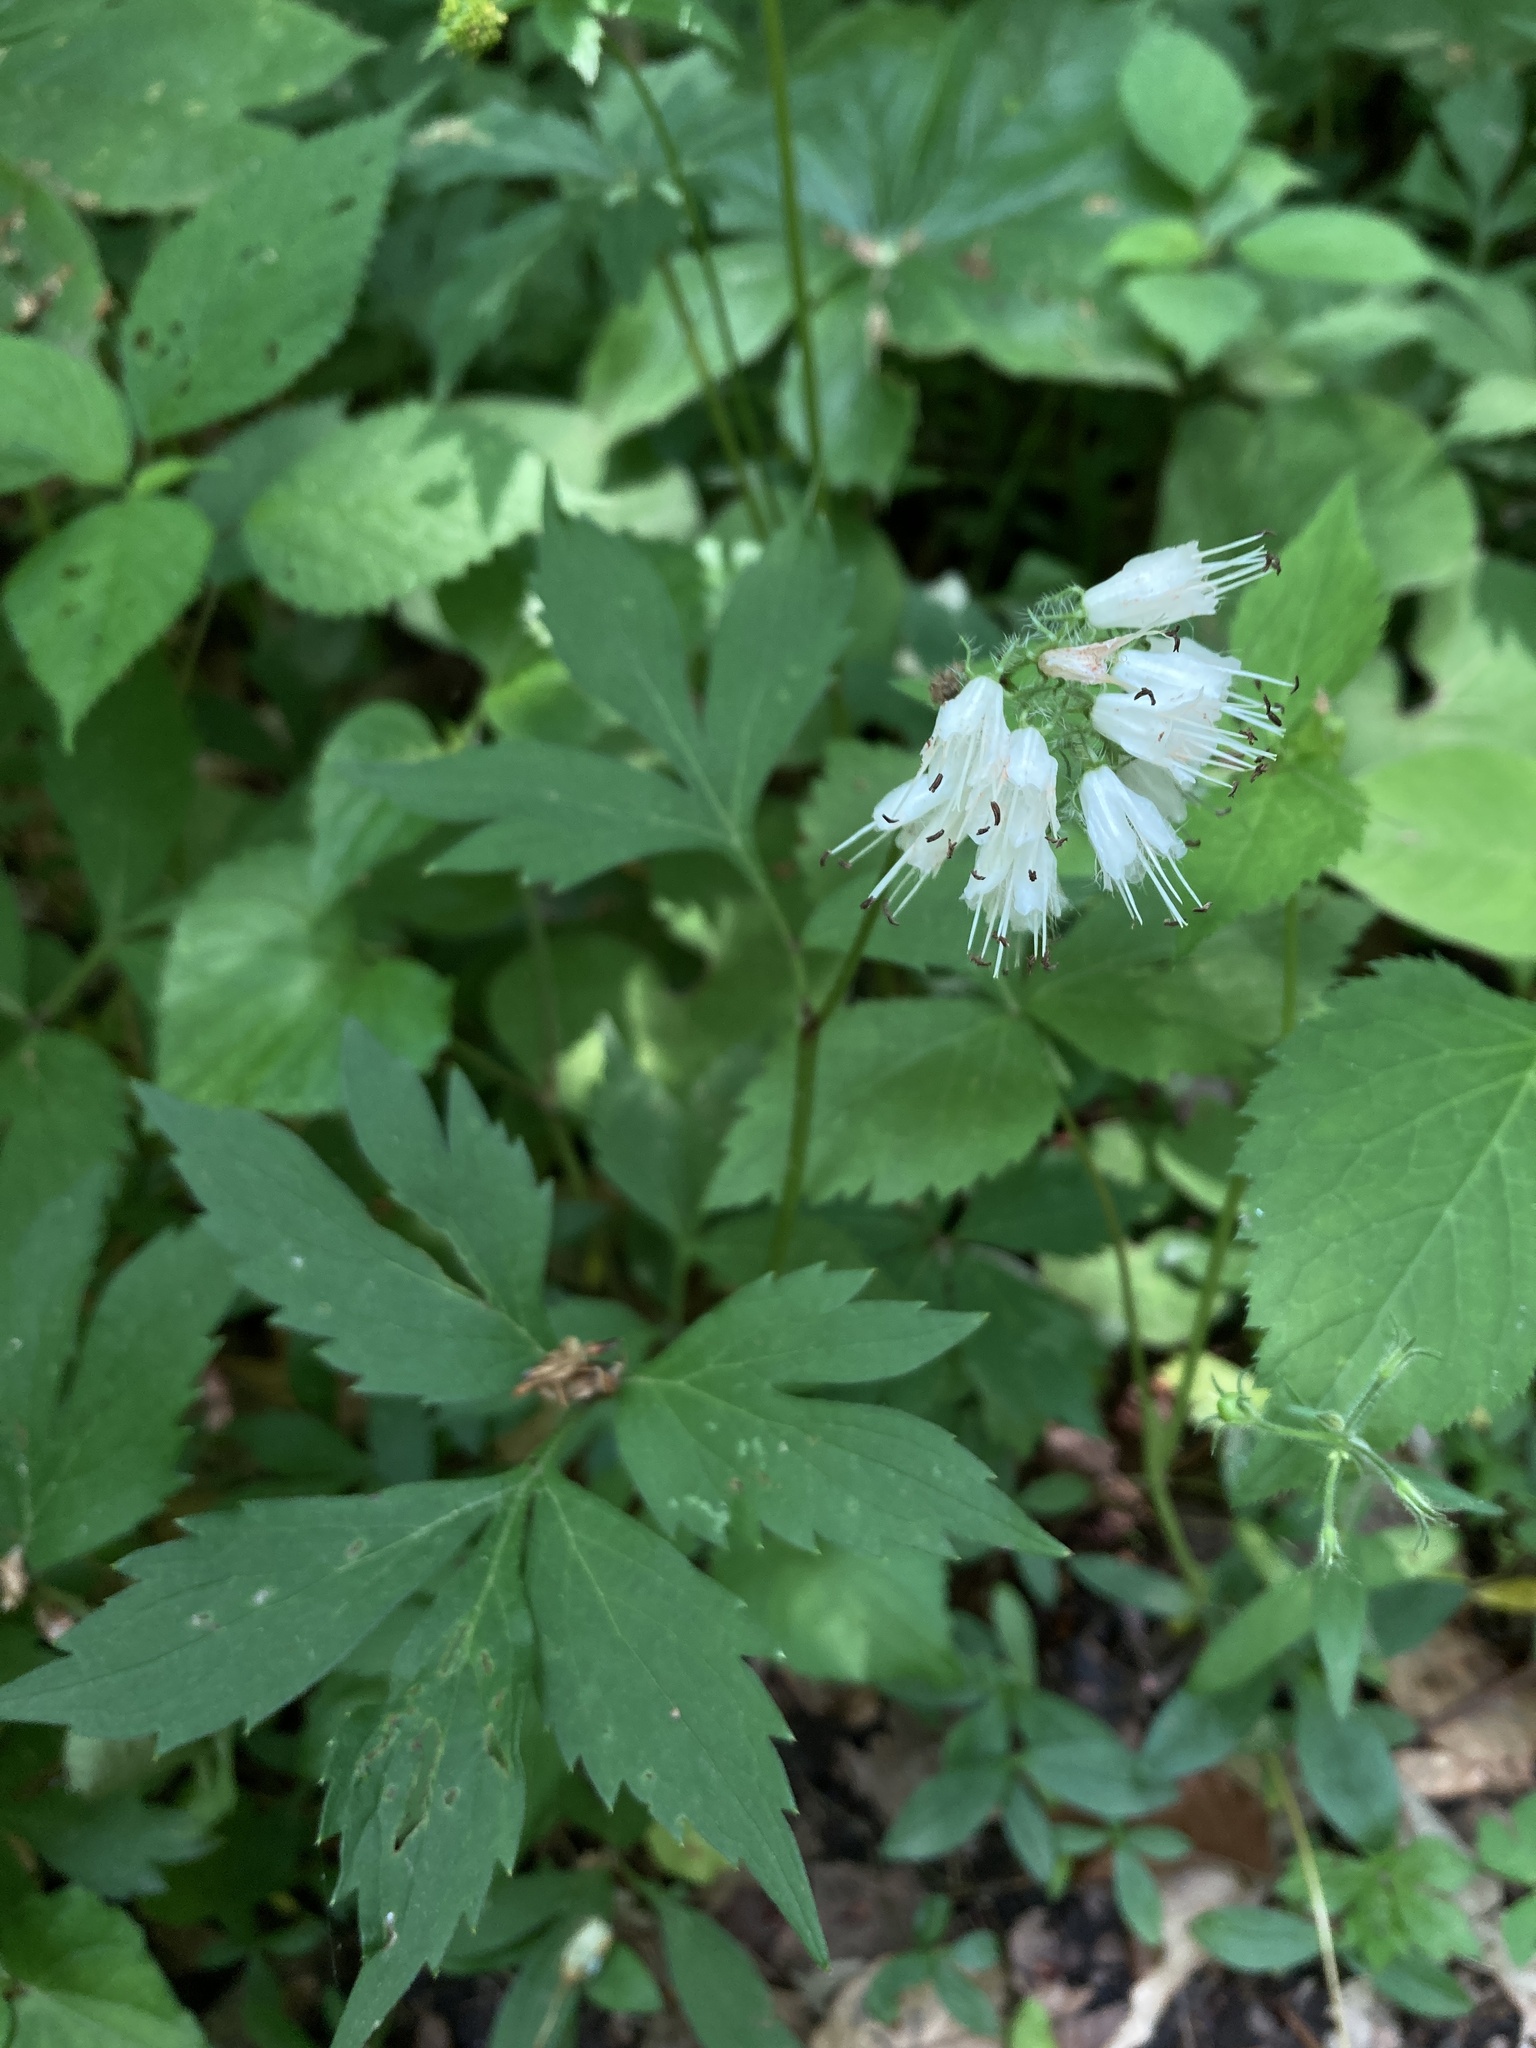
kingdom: Plantae
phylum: Tracheophyta
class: Magnoliopsida
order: Boraginales
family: Hydrophyllaceae
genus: Hydrophyllum
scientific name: Hydrophyllum virginianum
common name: Virginia waterleaf
